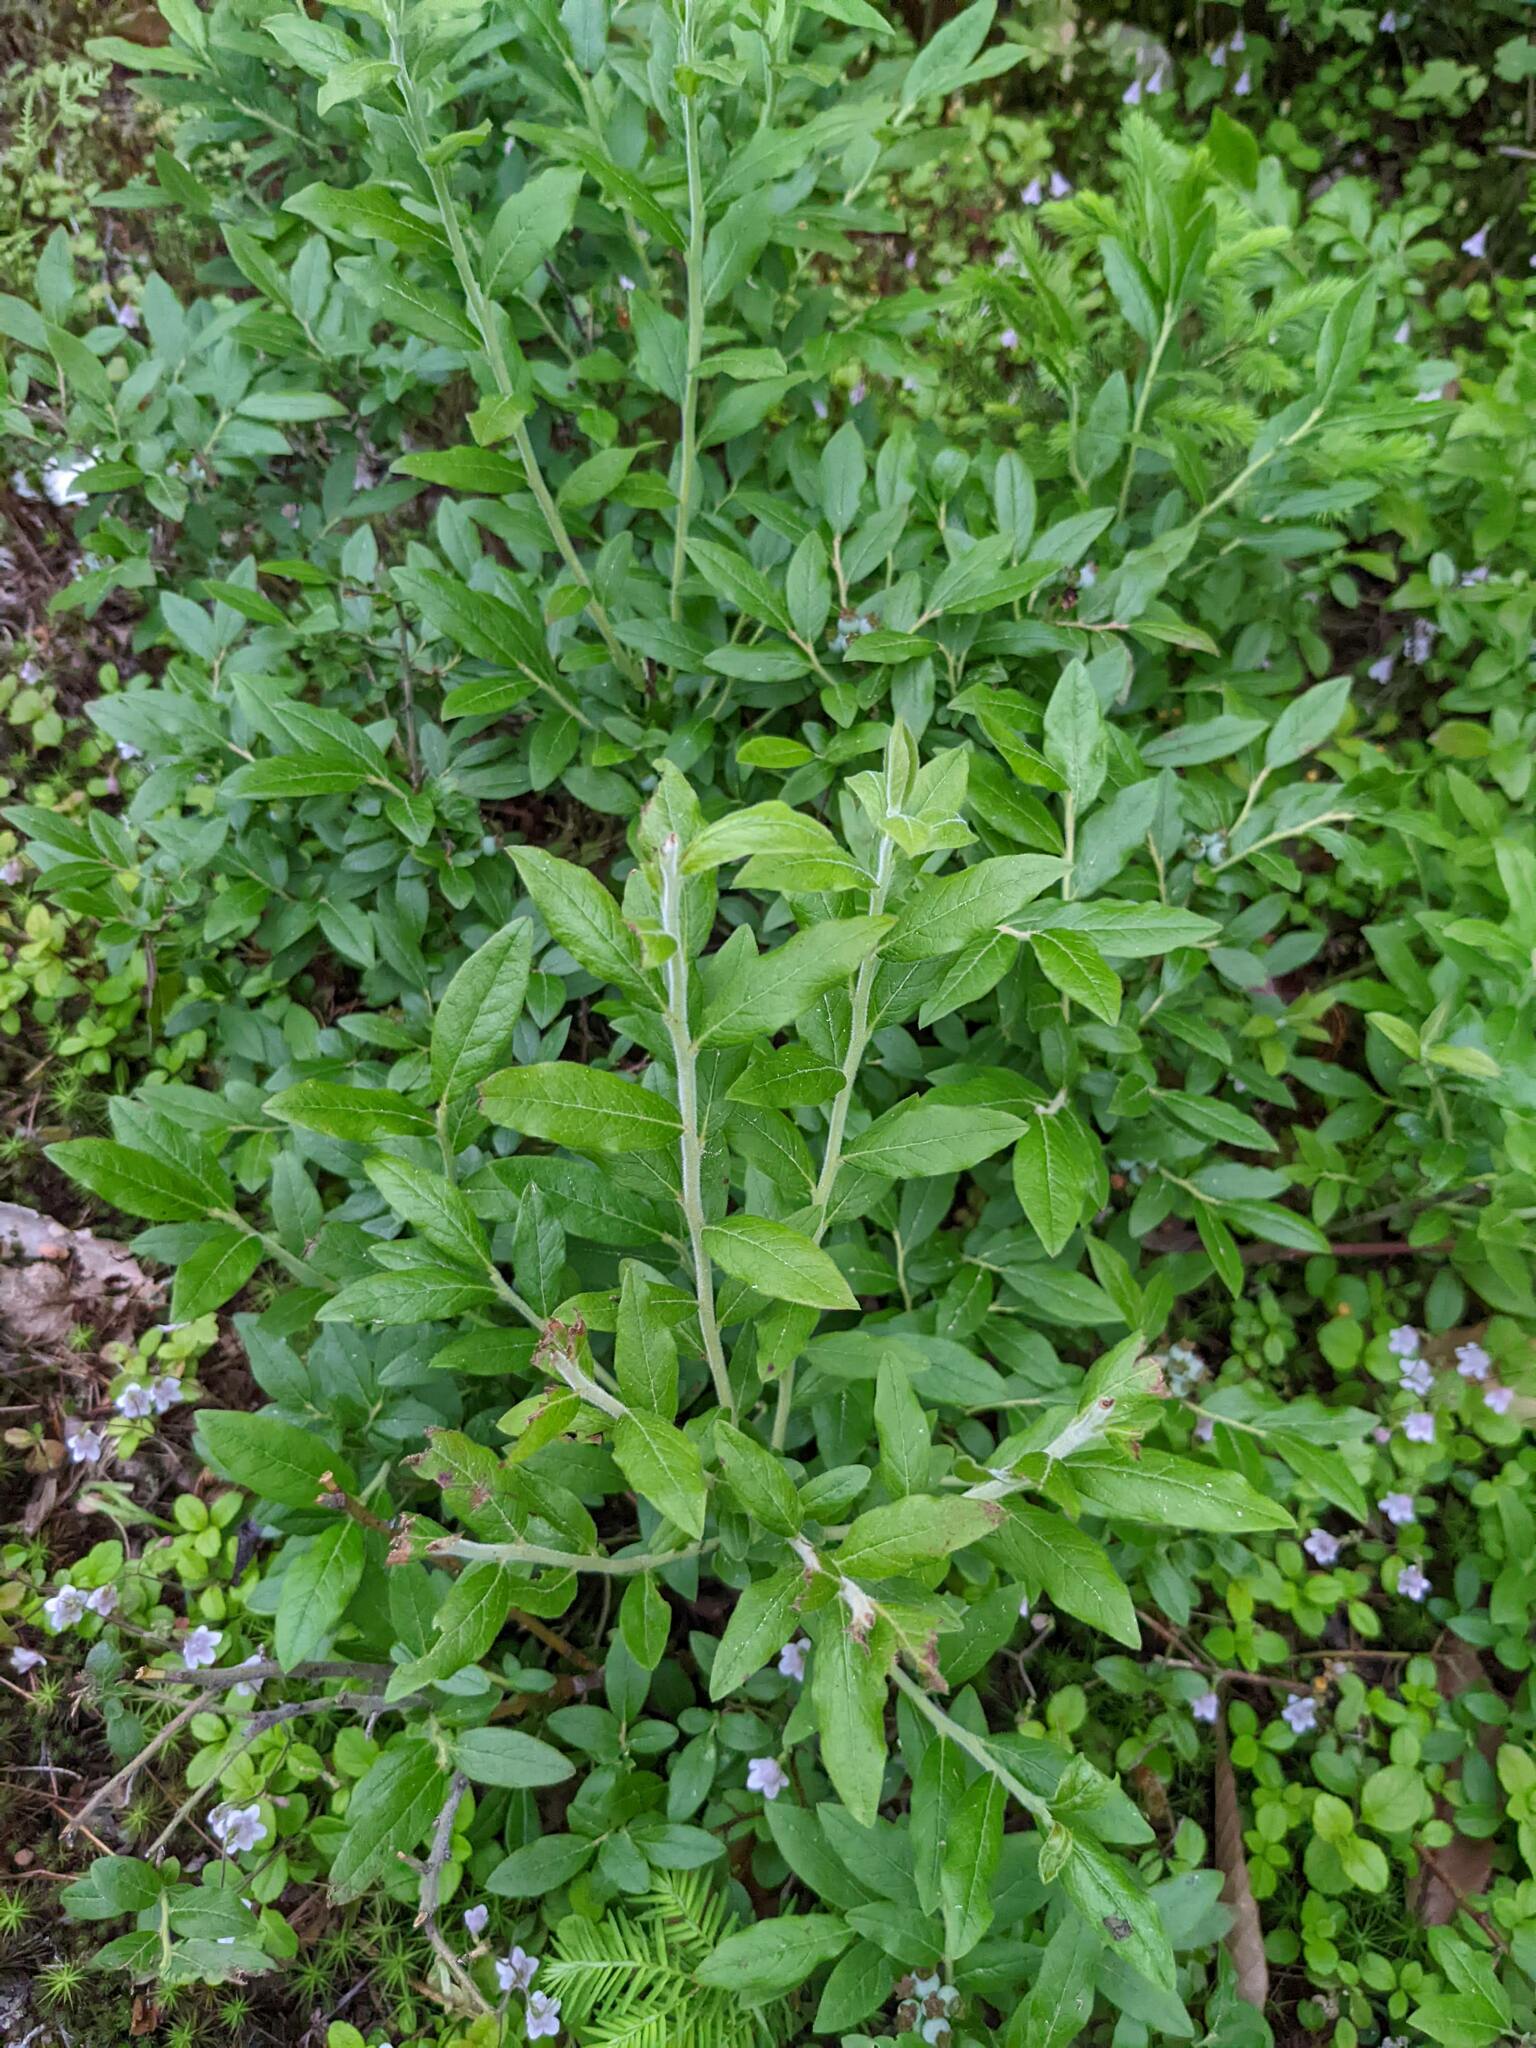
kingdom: Plantae
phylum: Tracheophyta
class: Magnoliopsida
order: Ericales
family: Ericaceae
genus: Vaccinium
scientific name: Vaccinium myrtilloides
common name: Canada blueberry
